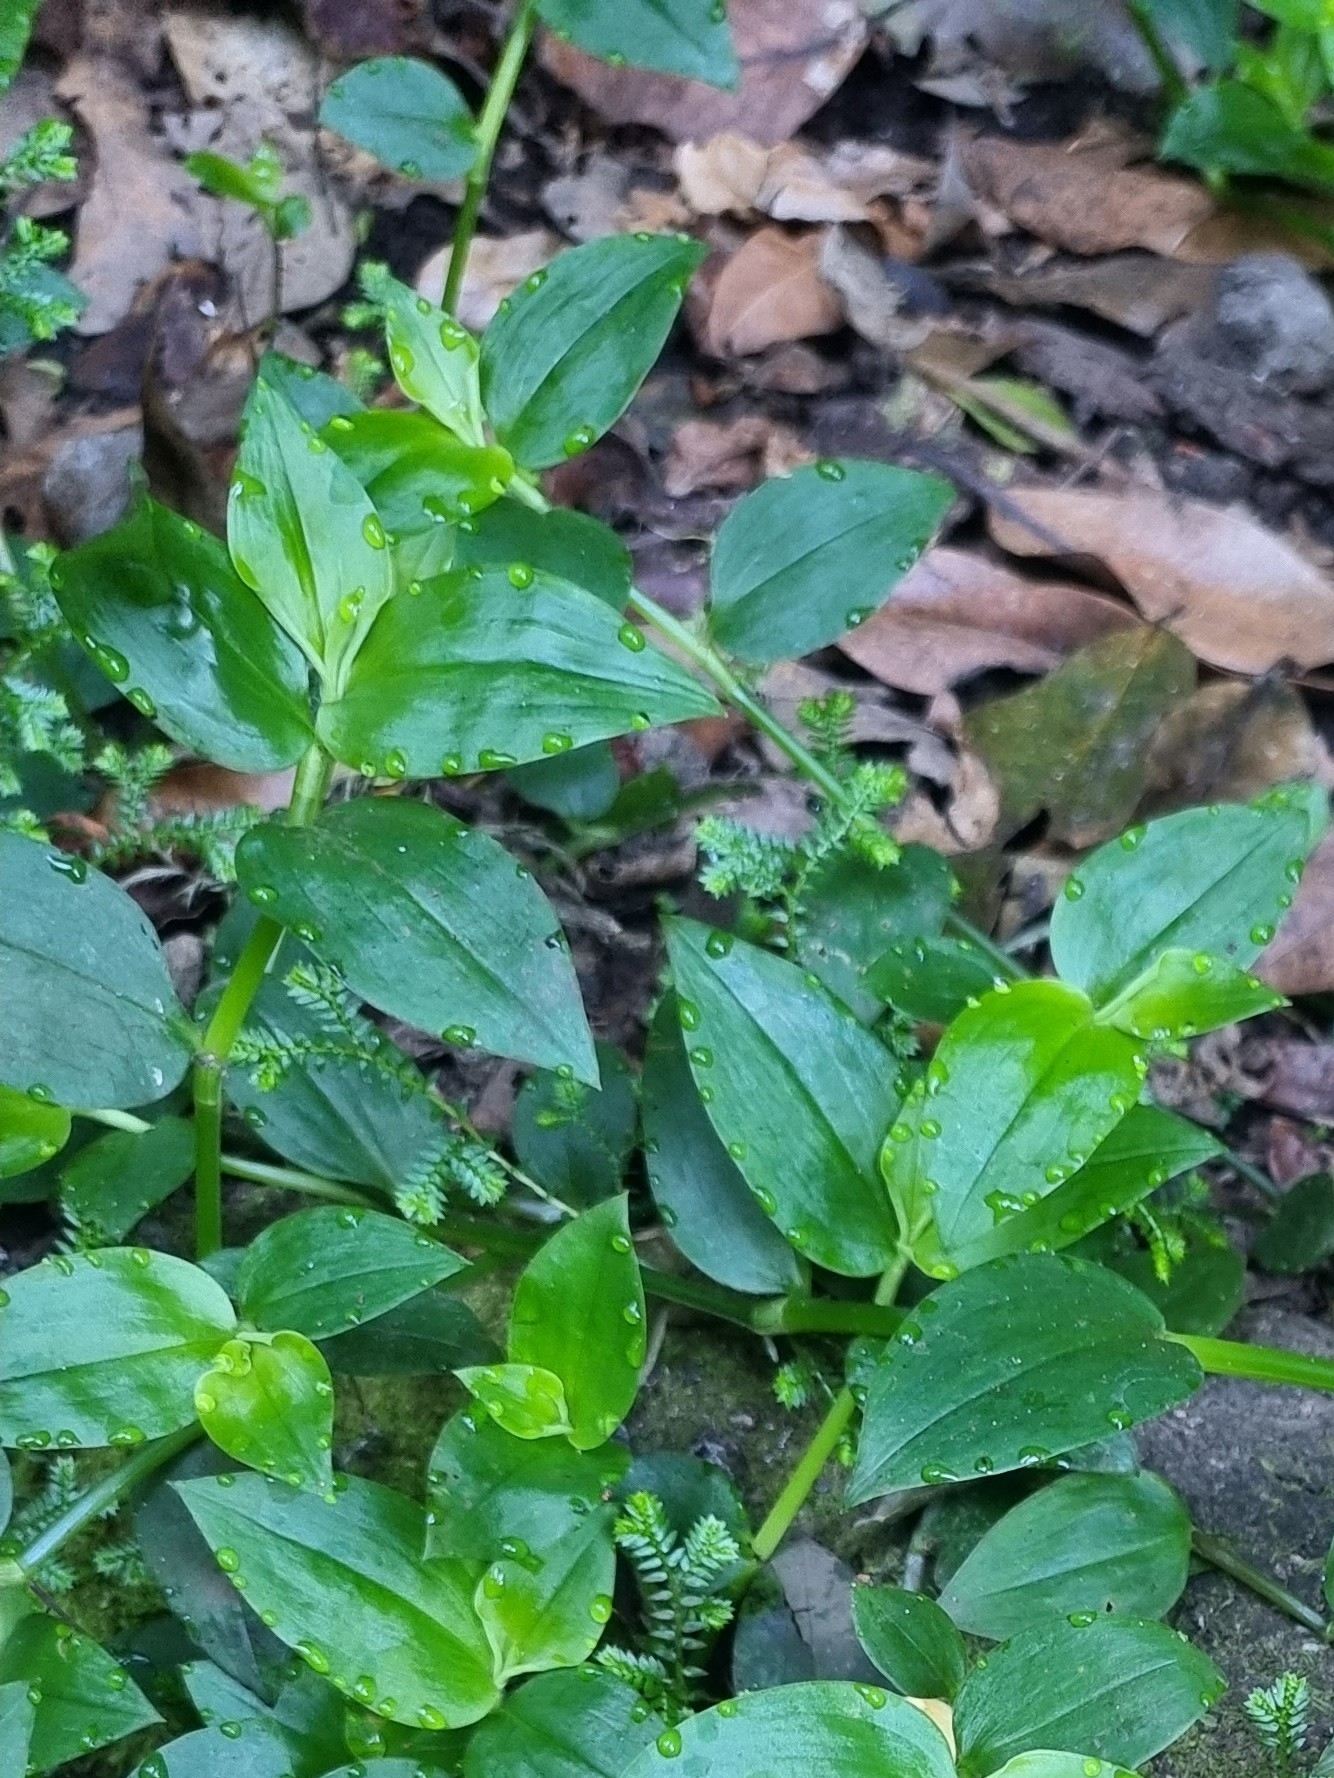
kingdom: Plantae
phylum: Tracheophyta
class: Liliopsida
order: Commelinales
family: Commelinaceae
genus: Tradescantia
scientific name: Tradescantia fluminensis
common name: Wandering-jew
